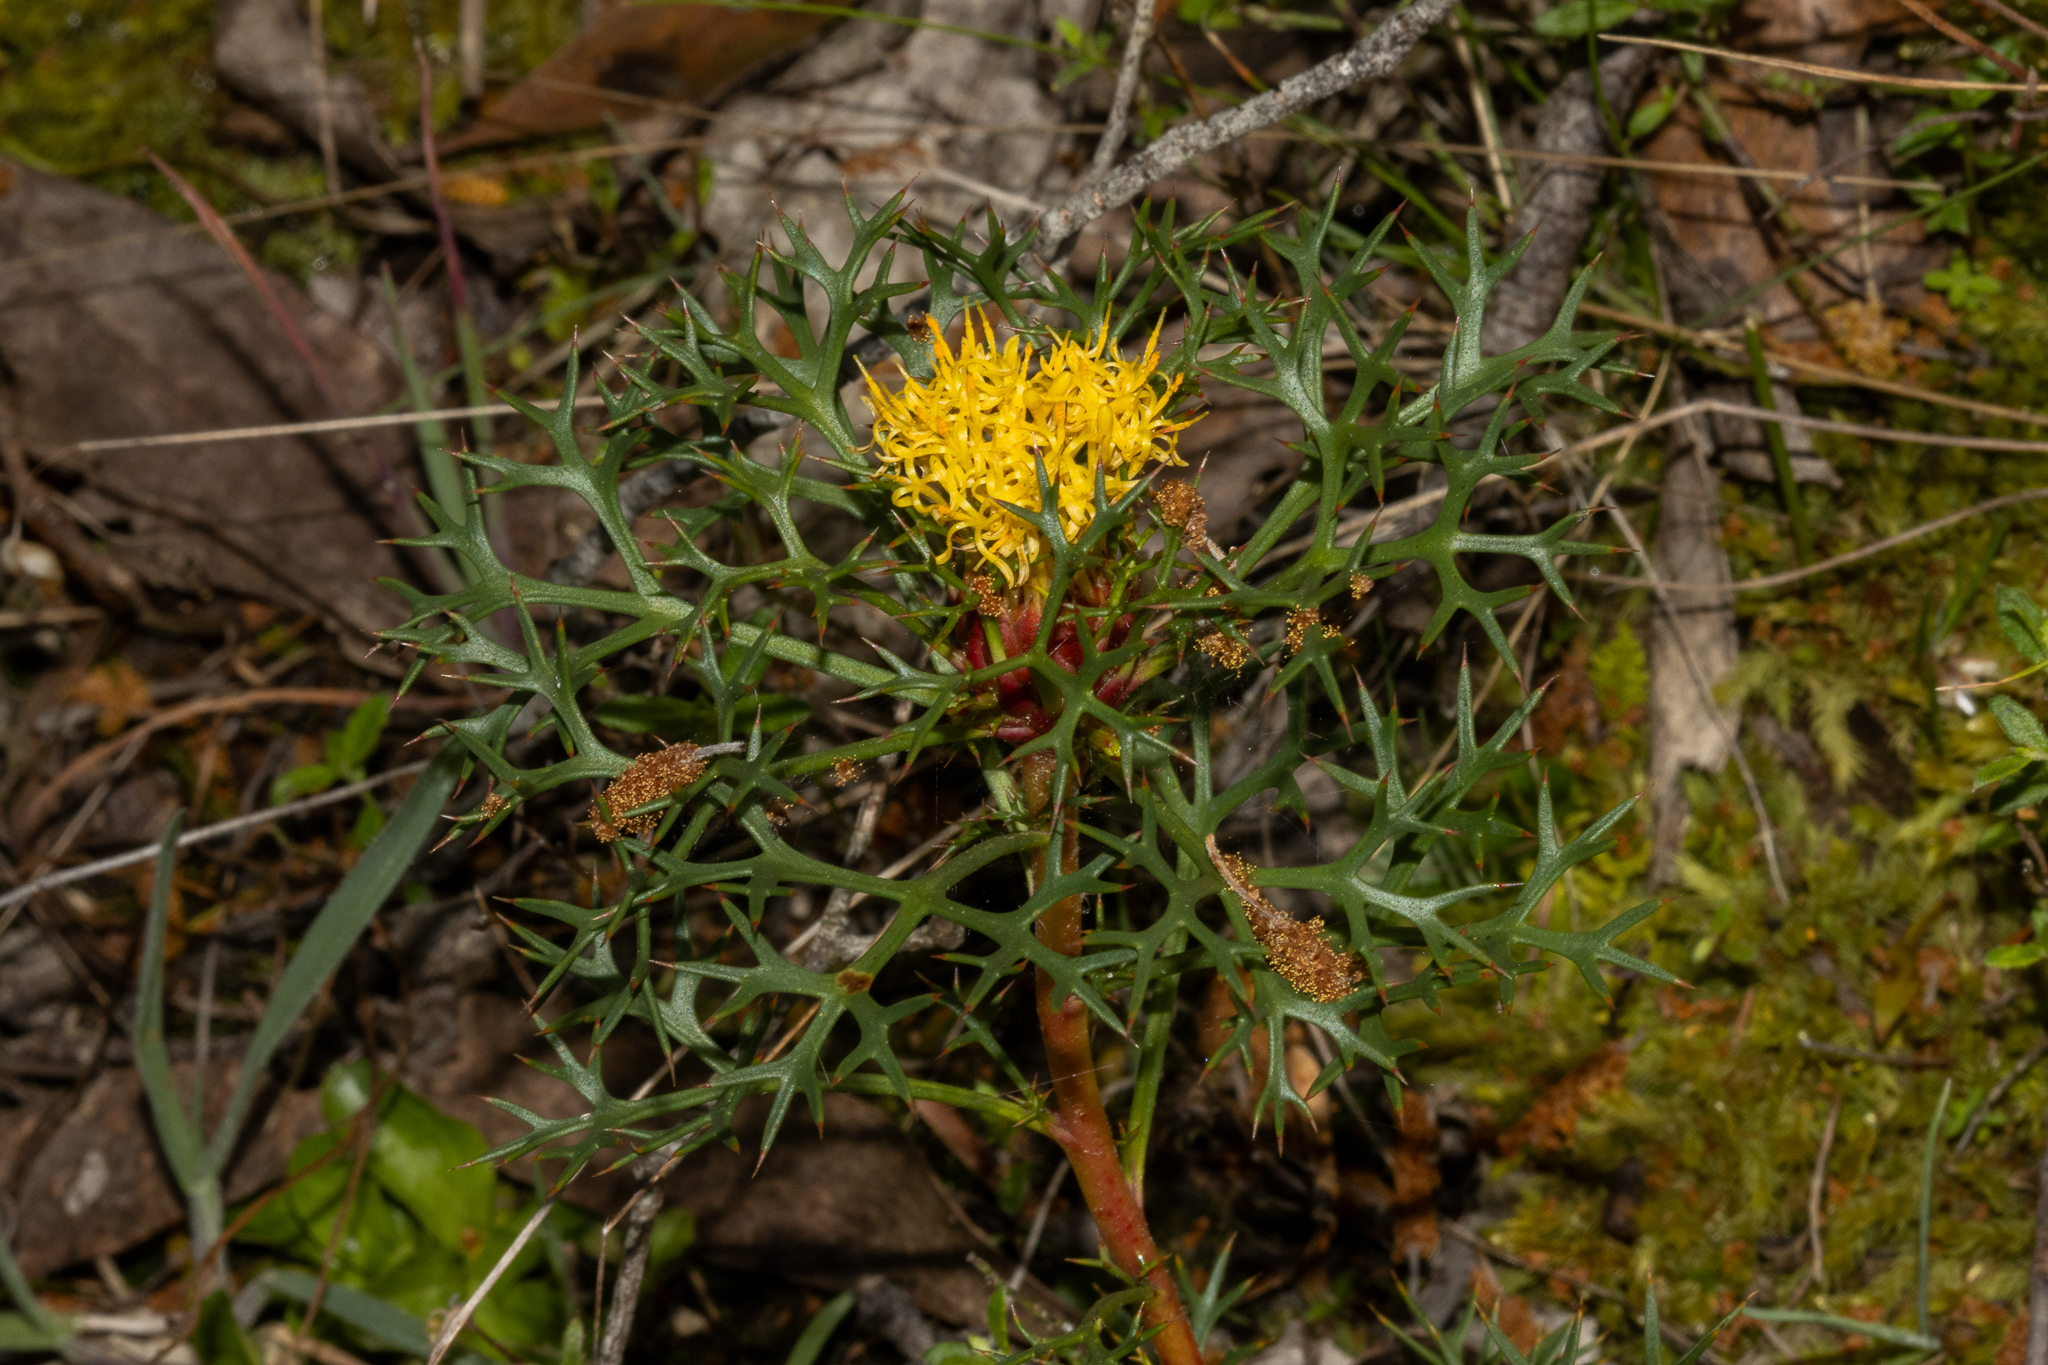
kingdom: Plantae
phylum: Tracheophyta
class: Magnoliopsida
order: Proteales
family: Proteaceae
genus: Isopogon
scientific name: Isopogon ceratophyllus
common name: Horny cone-bush
